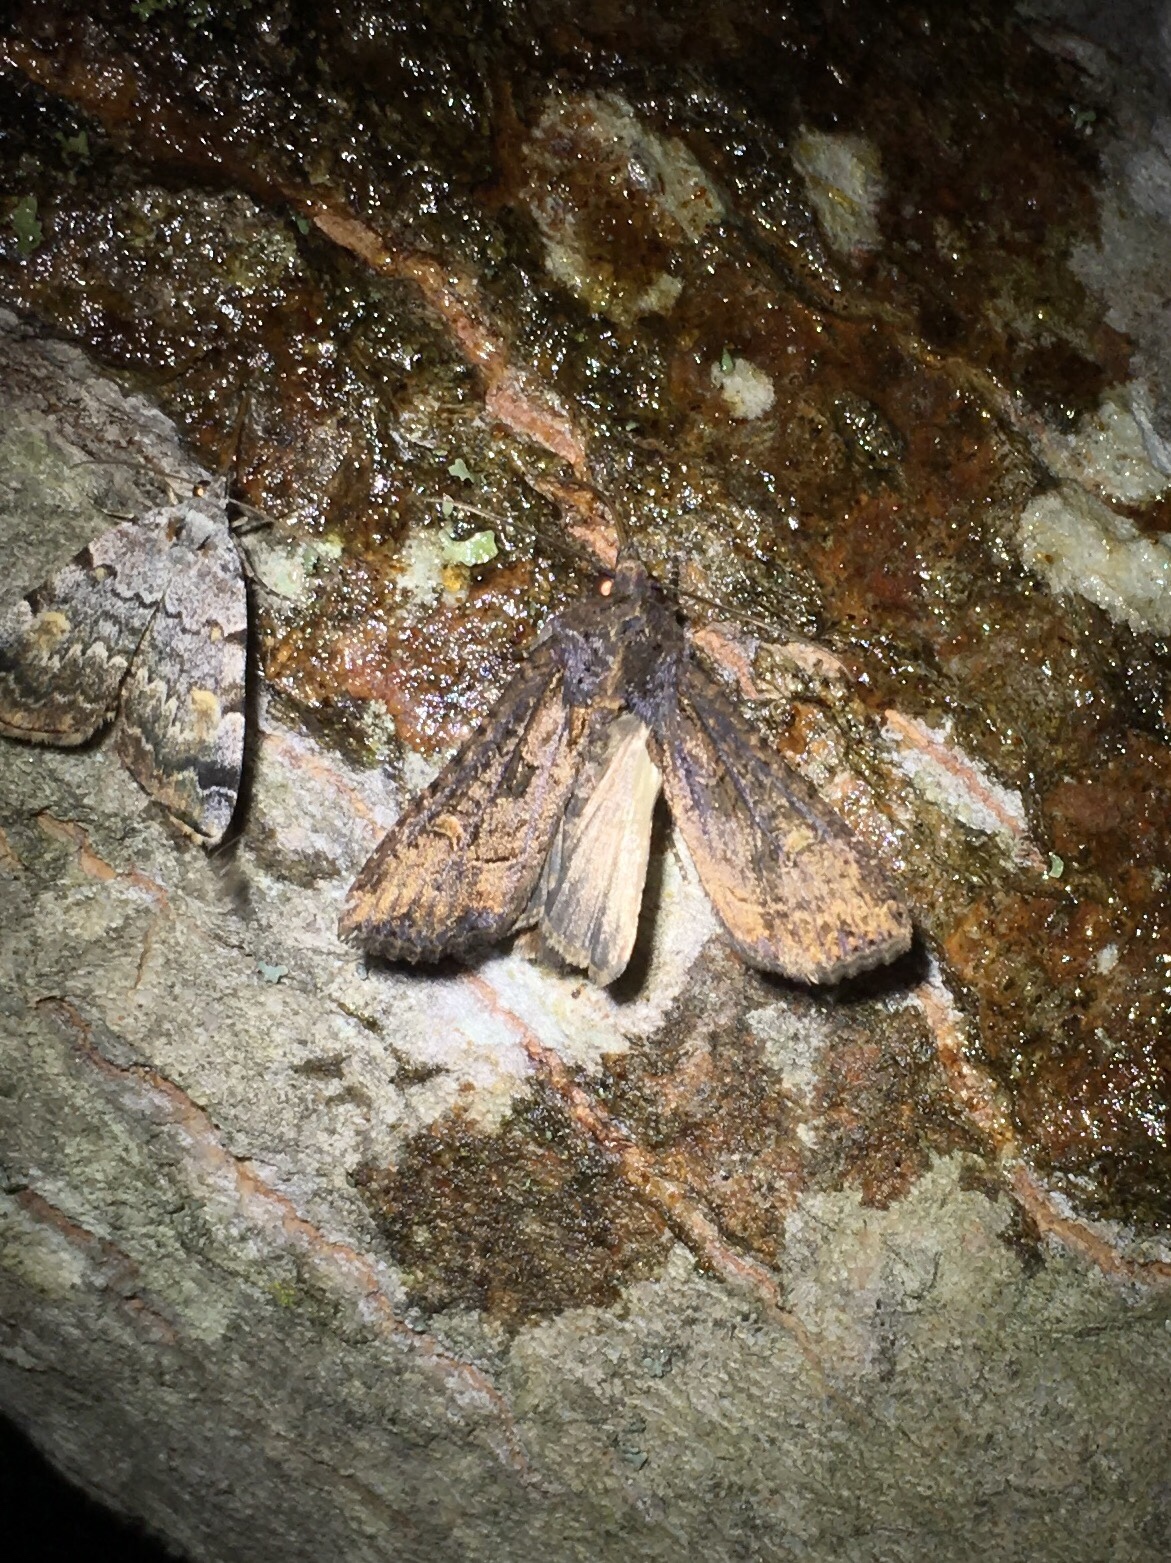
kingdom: Animalia
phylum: Arthropoda
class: Insecta
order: Lepidoptera
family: Noctuidae
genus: Peridroma
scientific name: Peridroma saucia
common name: Pearly underwing
